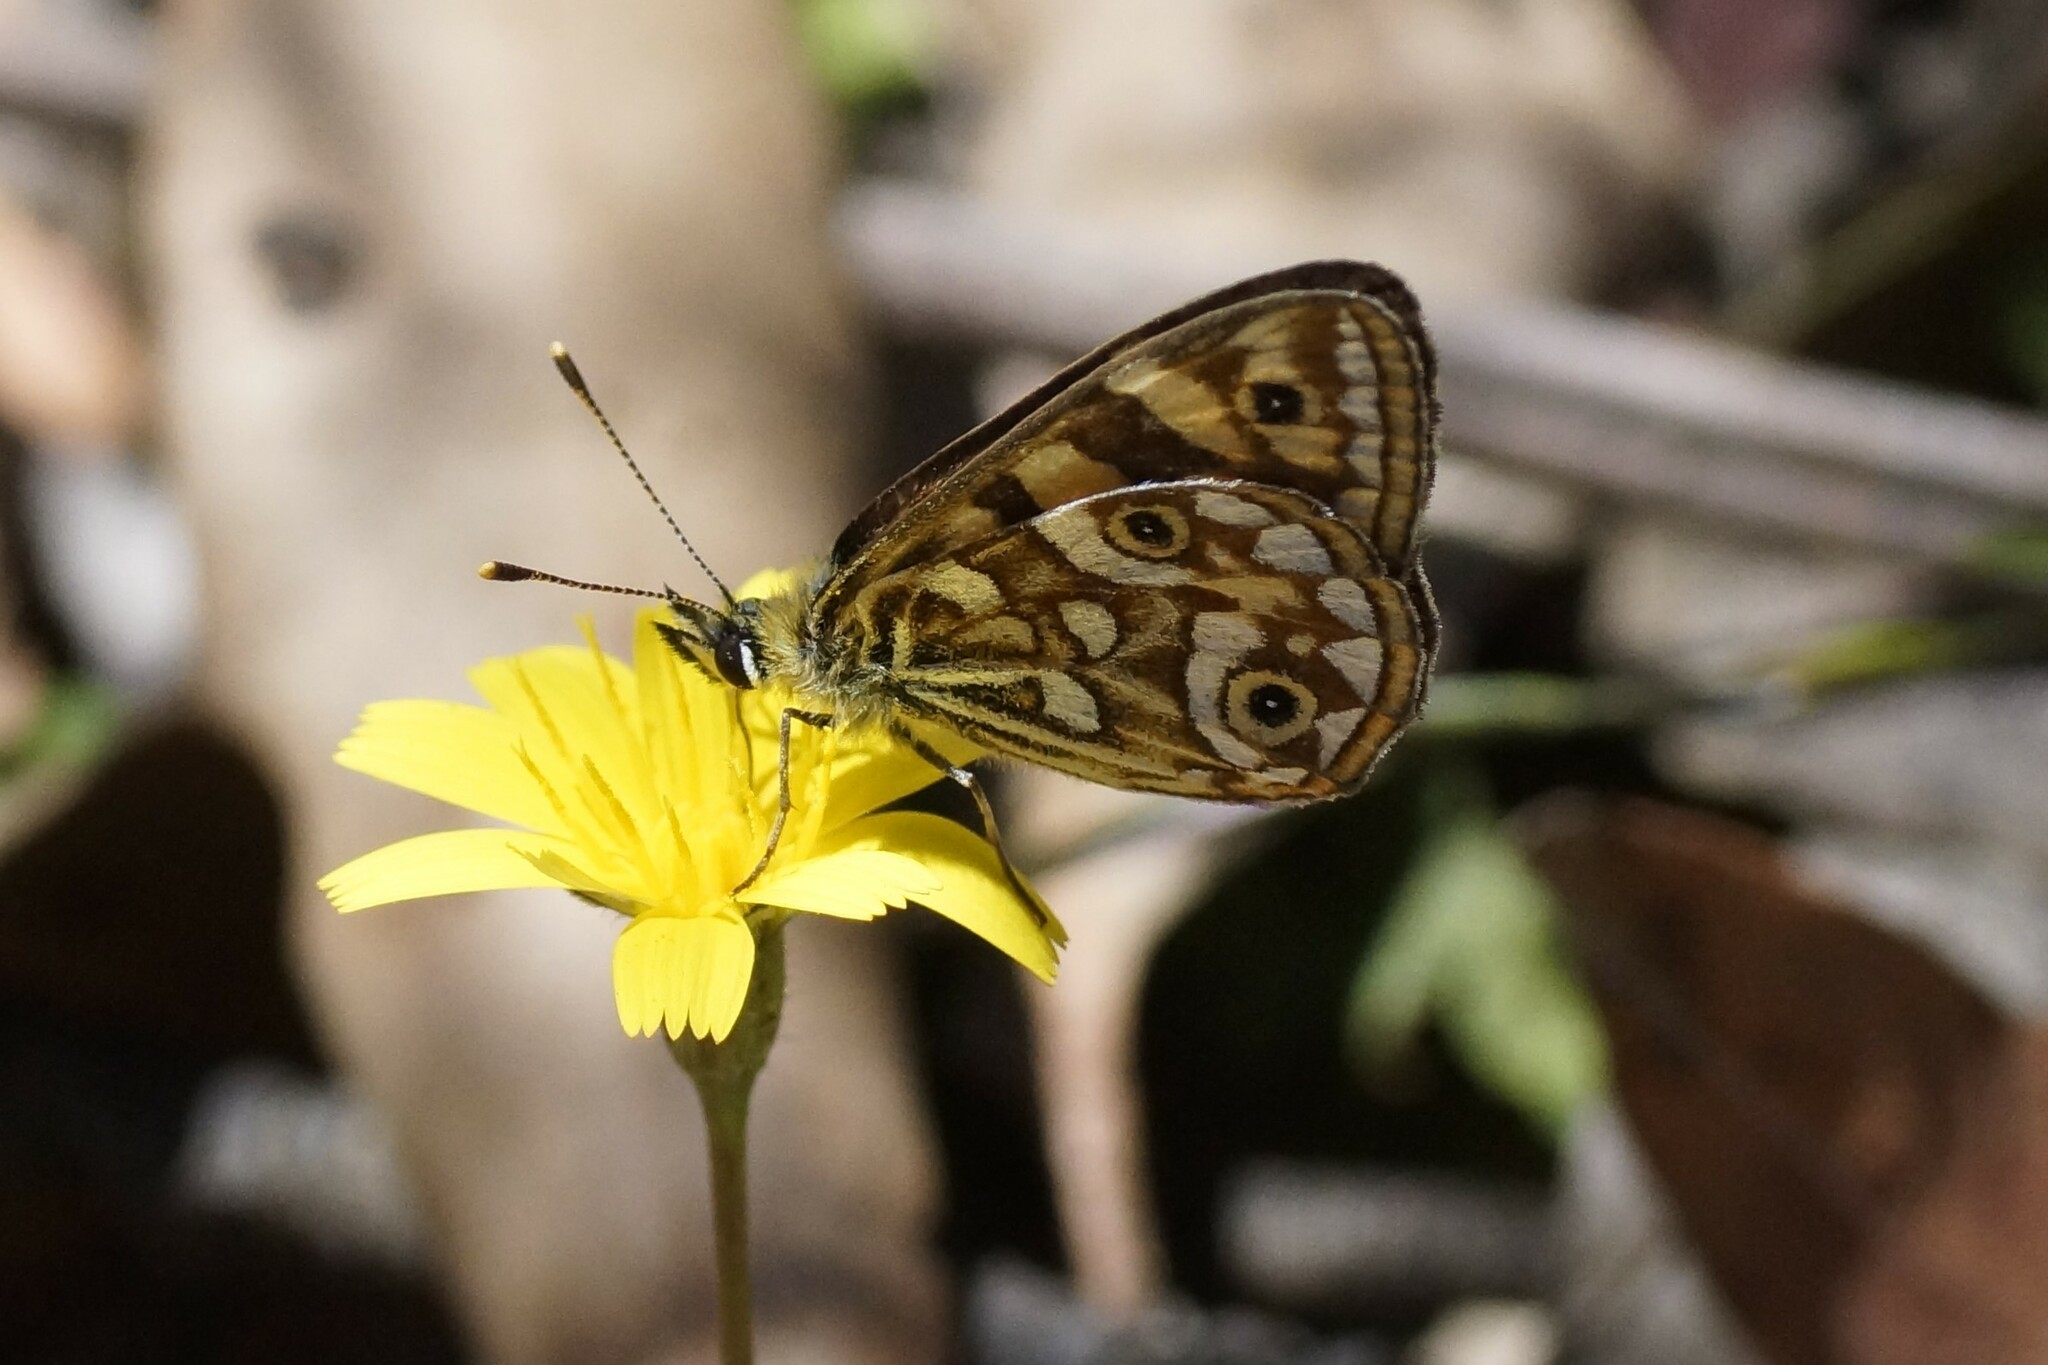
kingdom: Animalia
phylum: Arthropoda
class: Insecta
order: Lepidoptera
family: Nymphalidae
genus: Oreixenica
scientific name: Oreixenica lathoniella
